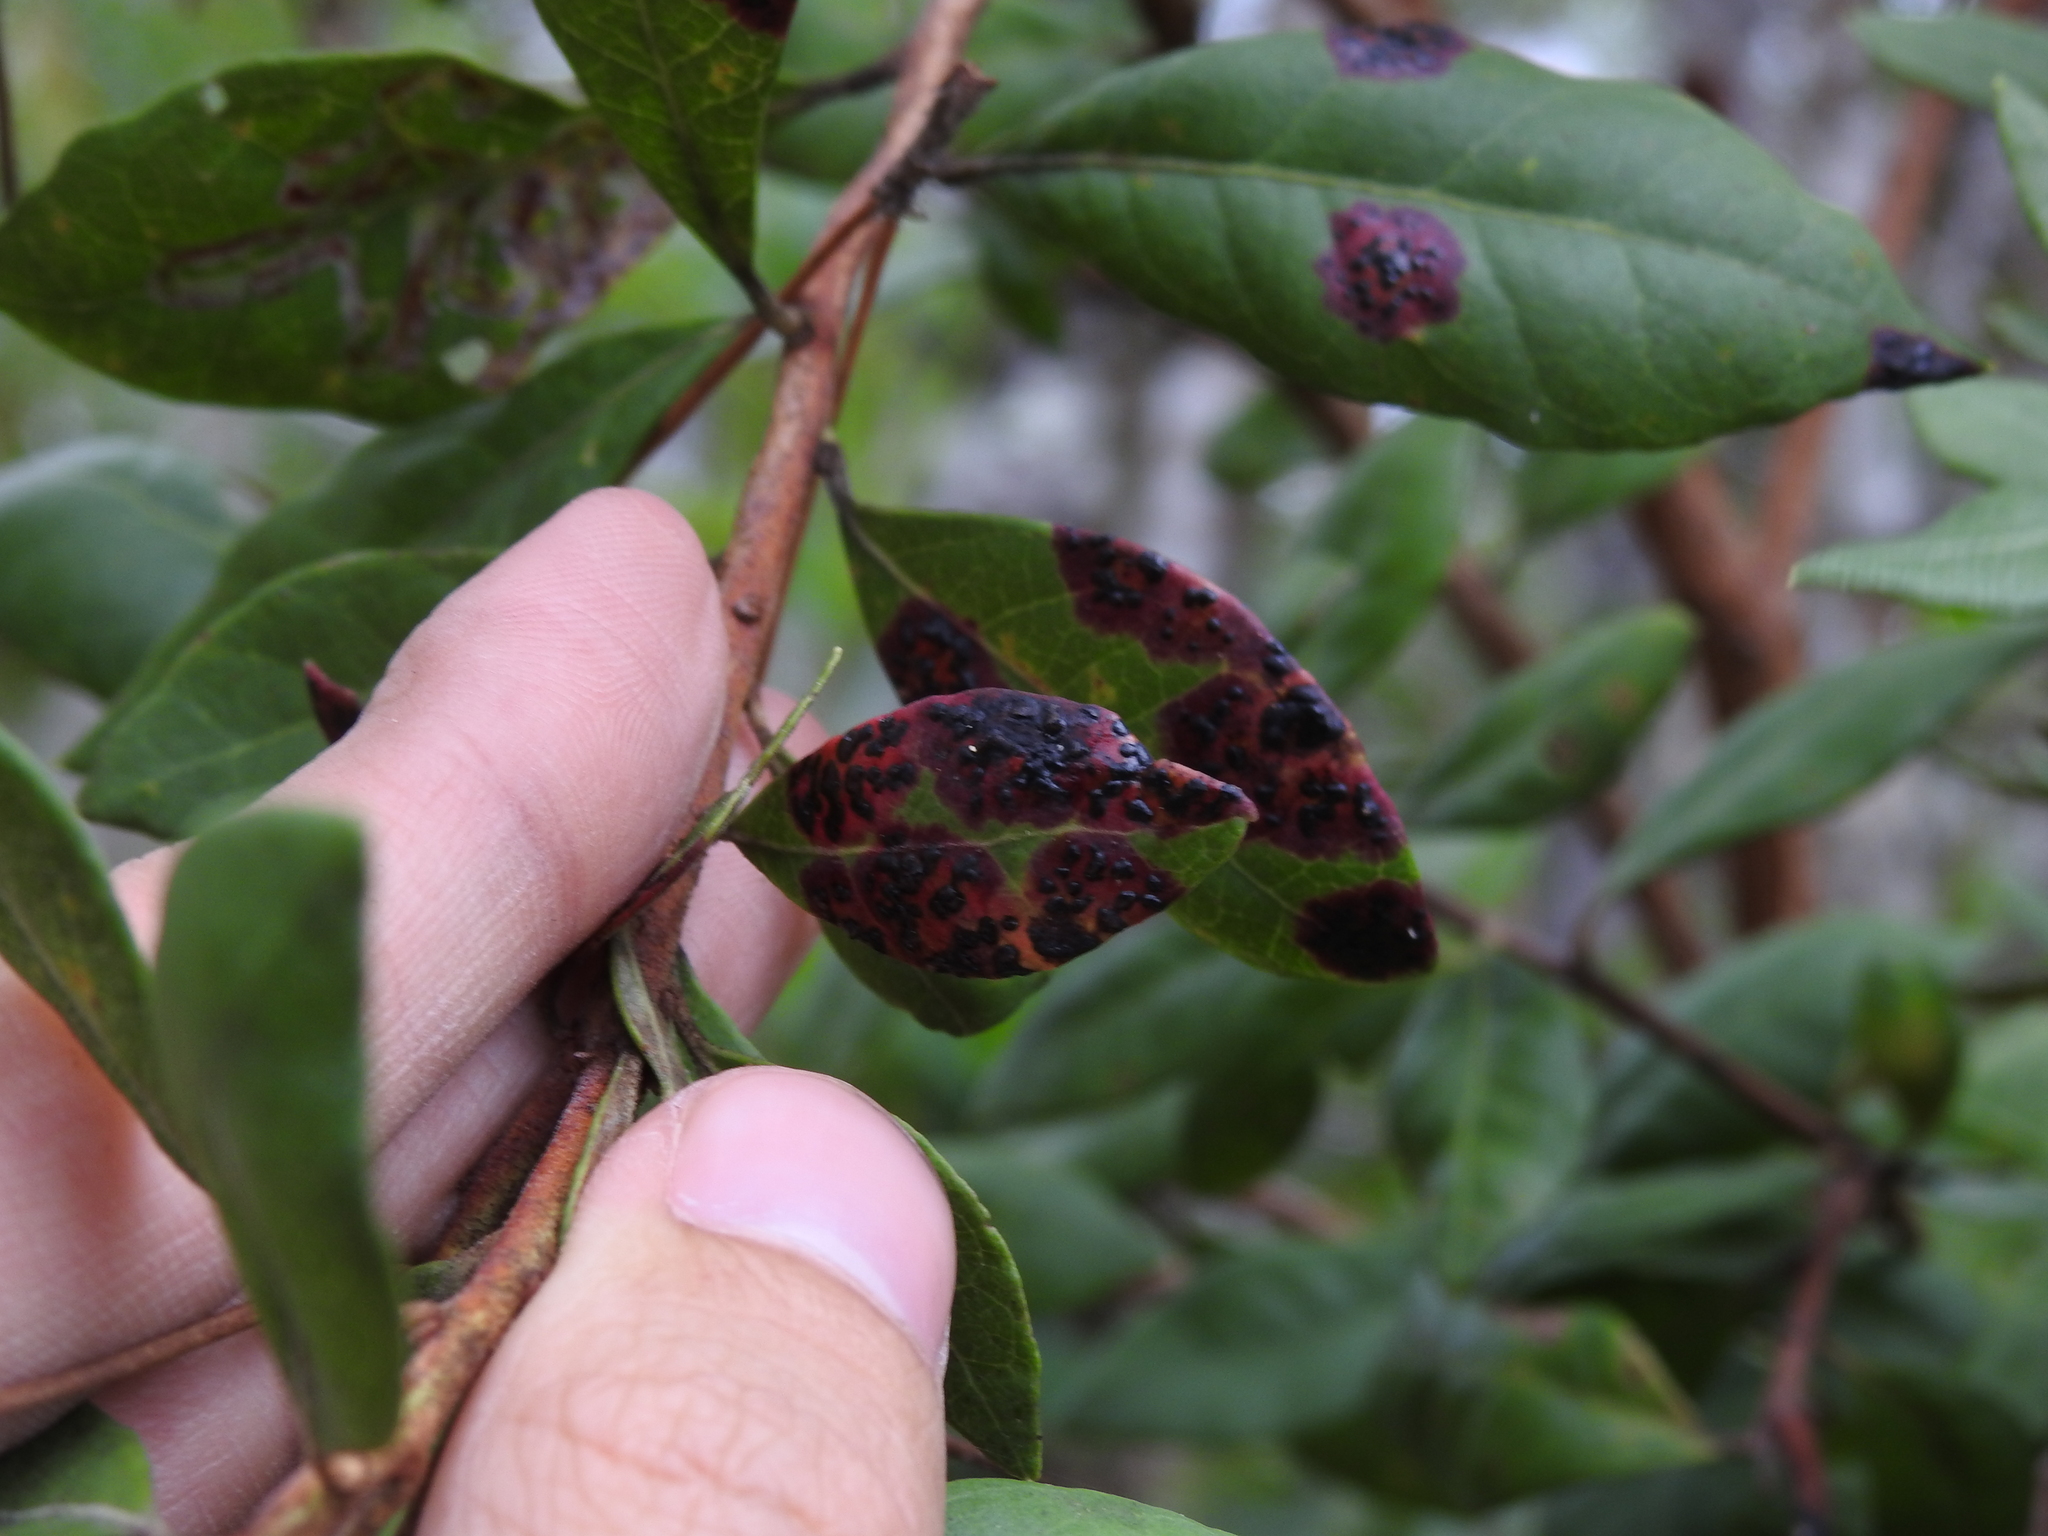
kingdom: Fungi
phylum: Ascomycota
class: Sordariomycetes
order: Phyllachorales
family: Phyllachoraceae
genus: Ophiodothella
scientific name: Ophiodothella angustissima
